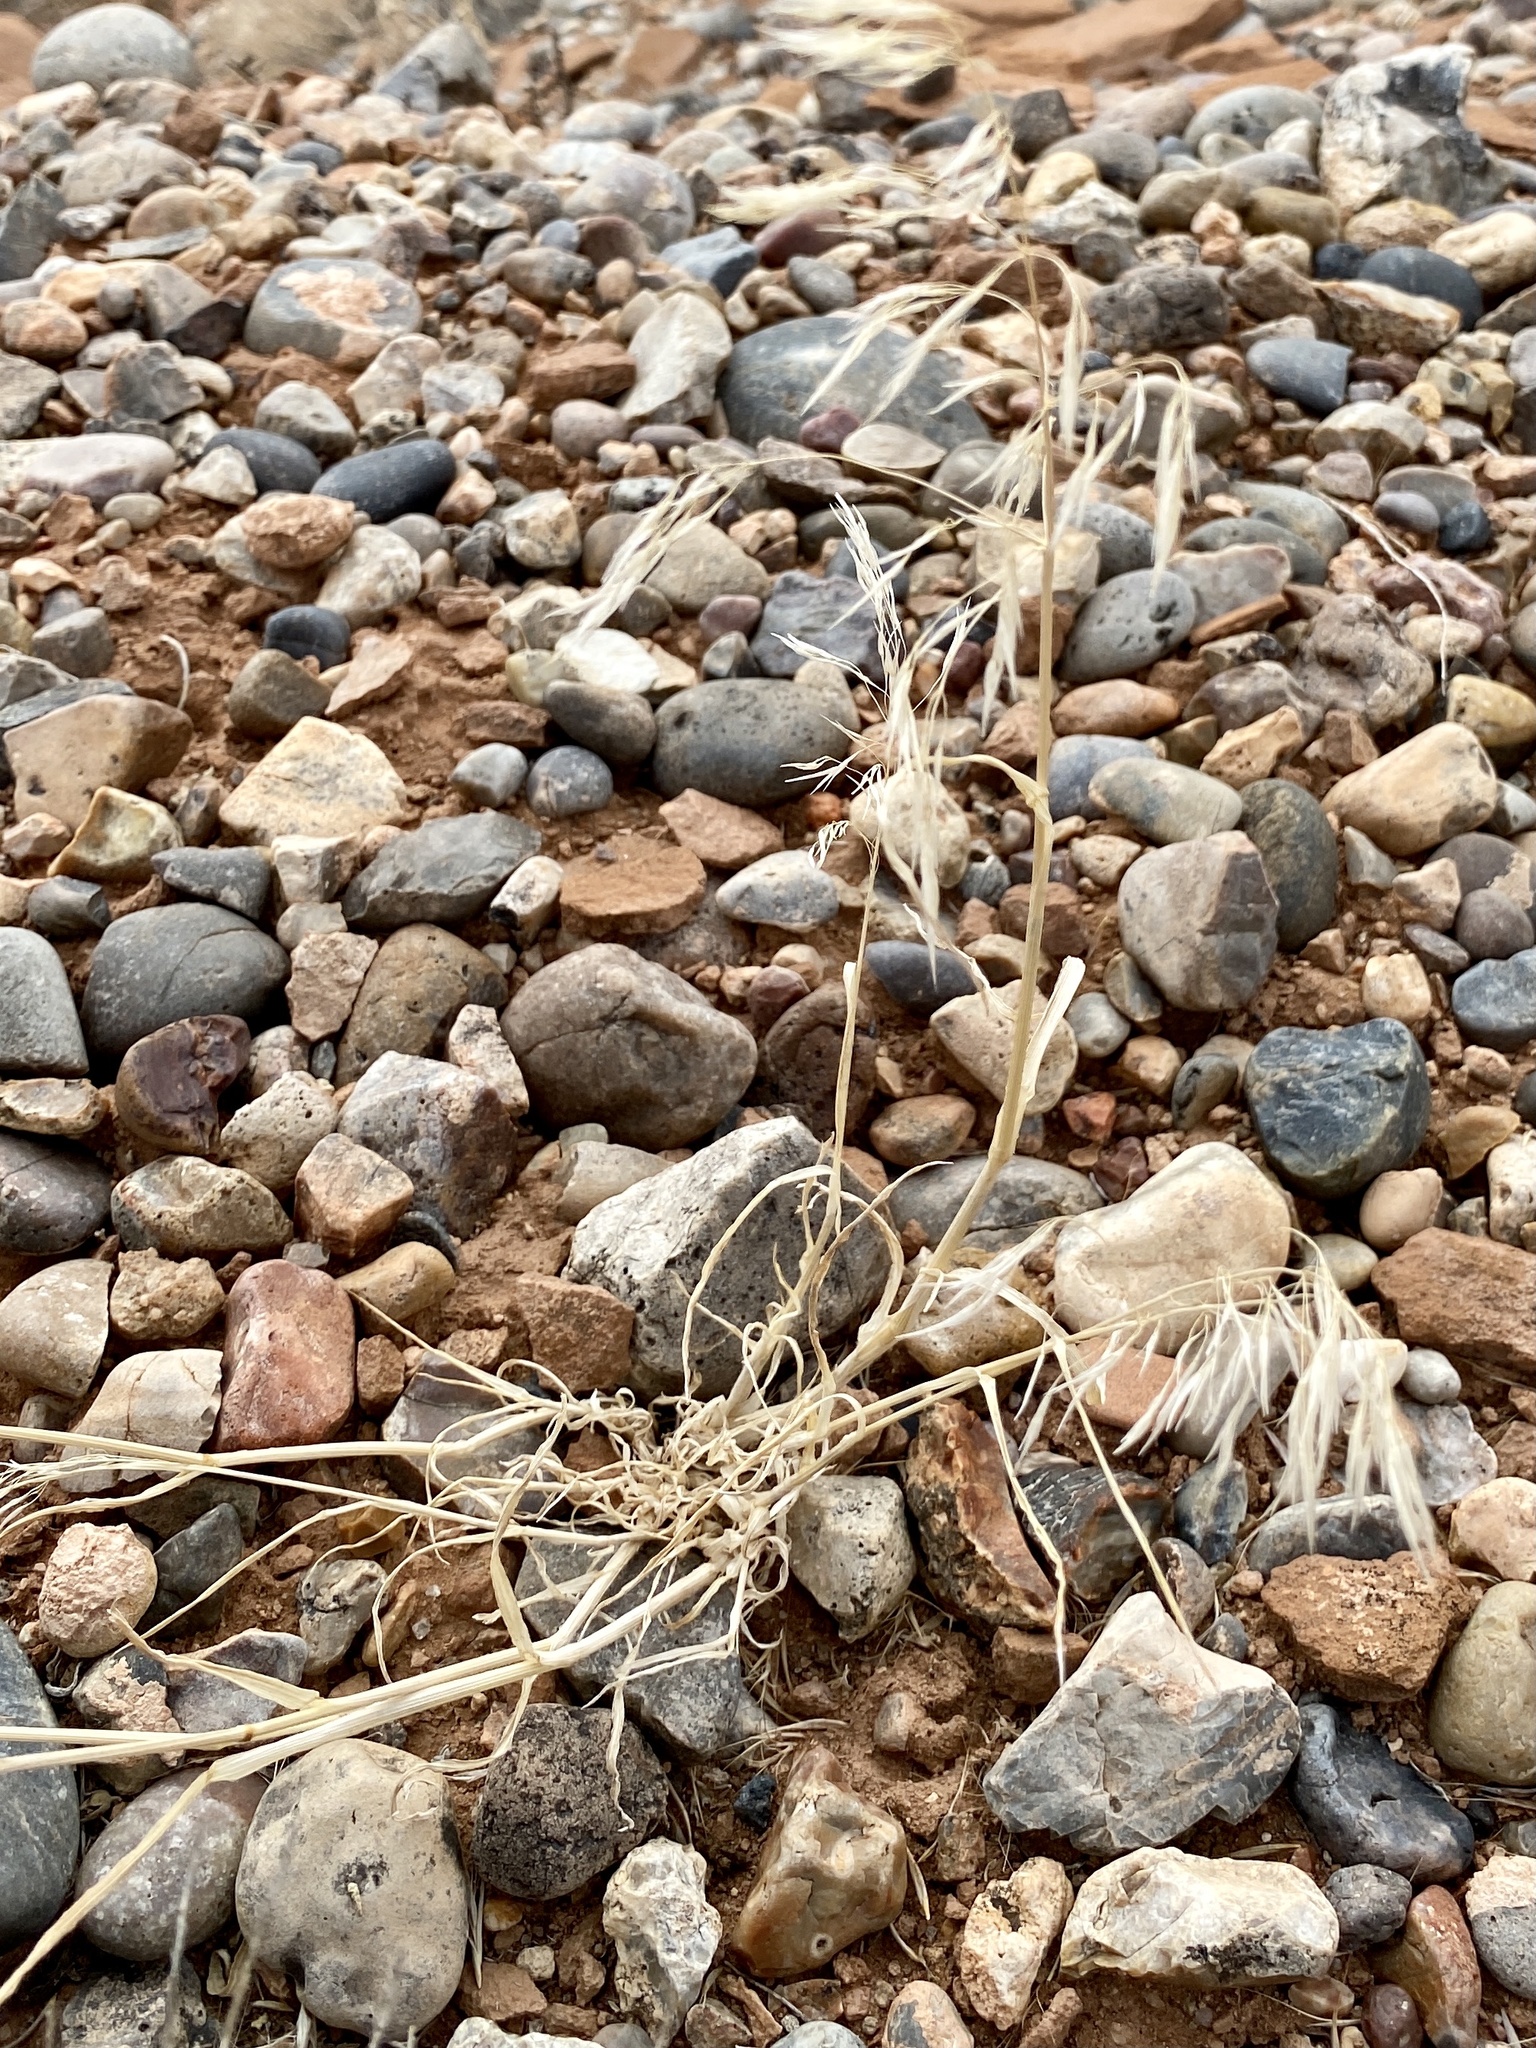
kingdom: Plantae
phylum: Tracheophyta
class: Liliopsida
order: Poales
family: Poaceae
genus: Bromus
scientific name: Bromus tectorum
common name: Cheatgrass
